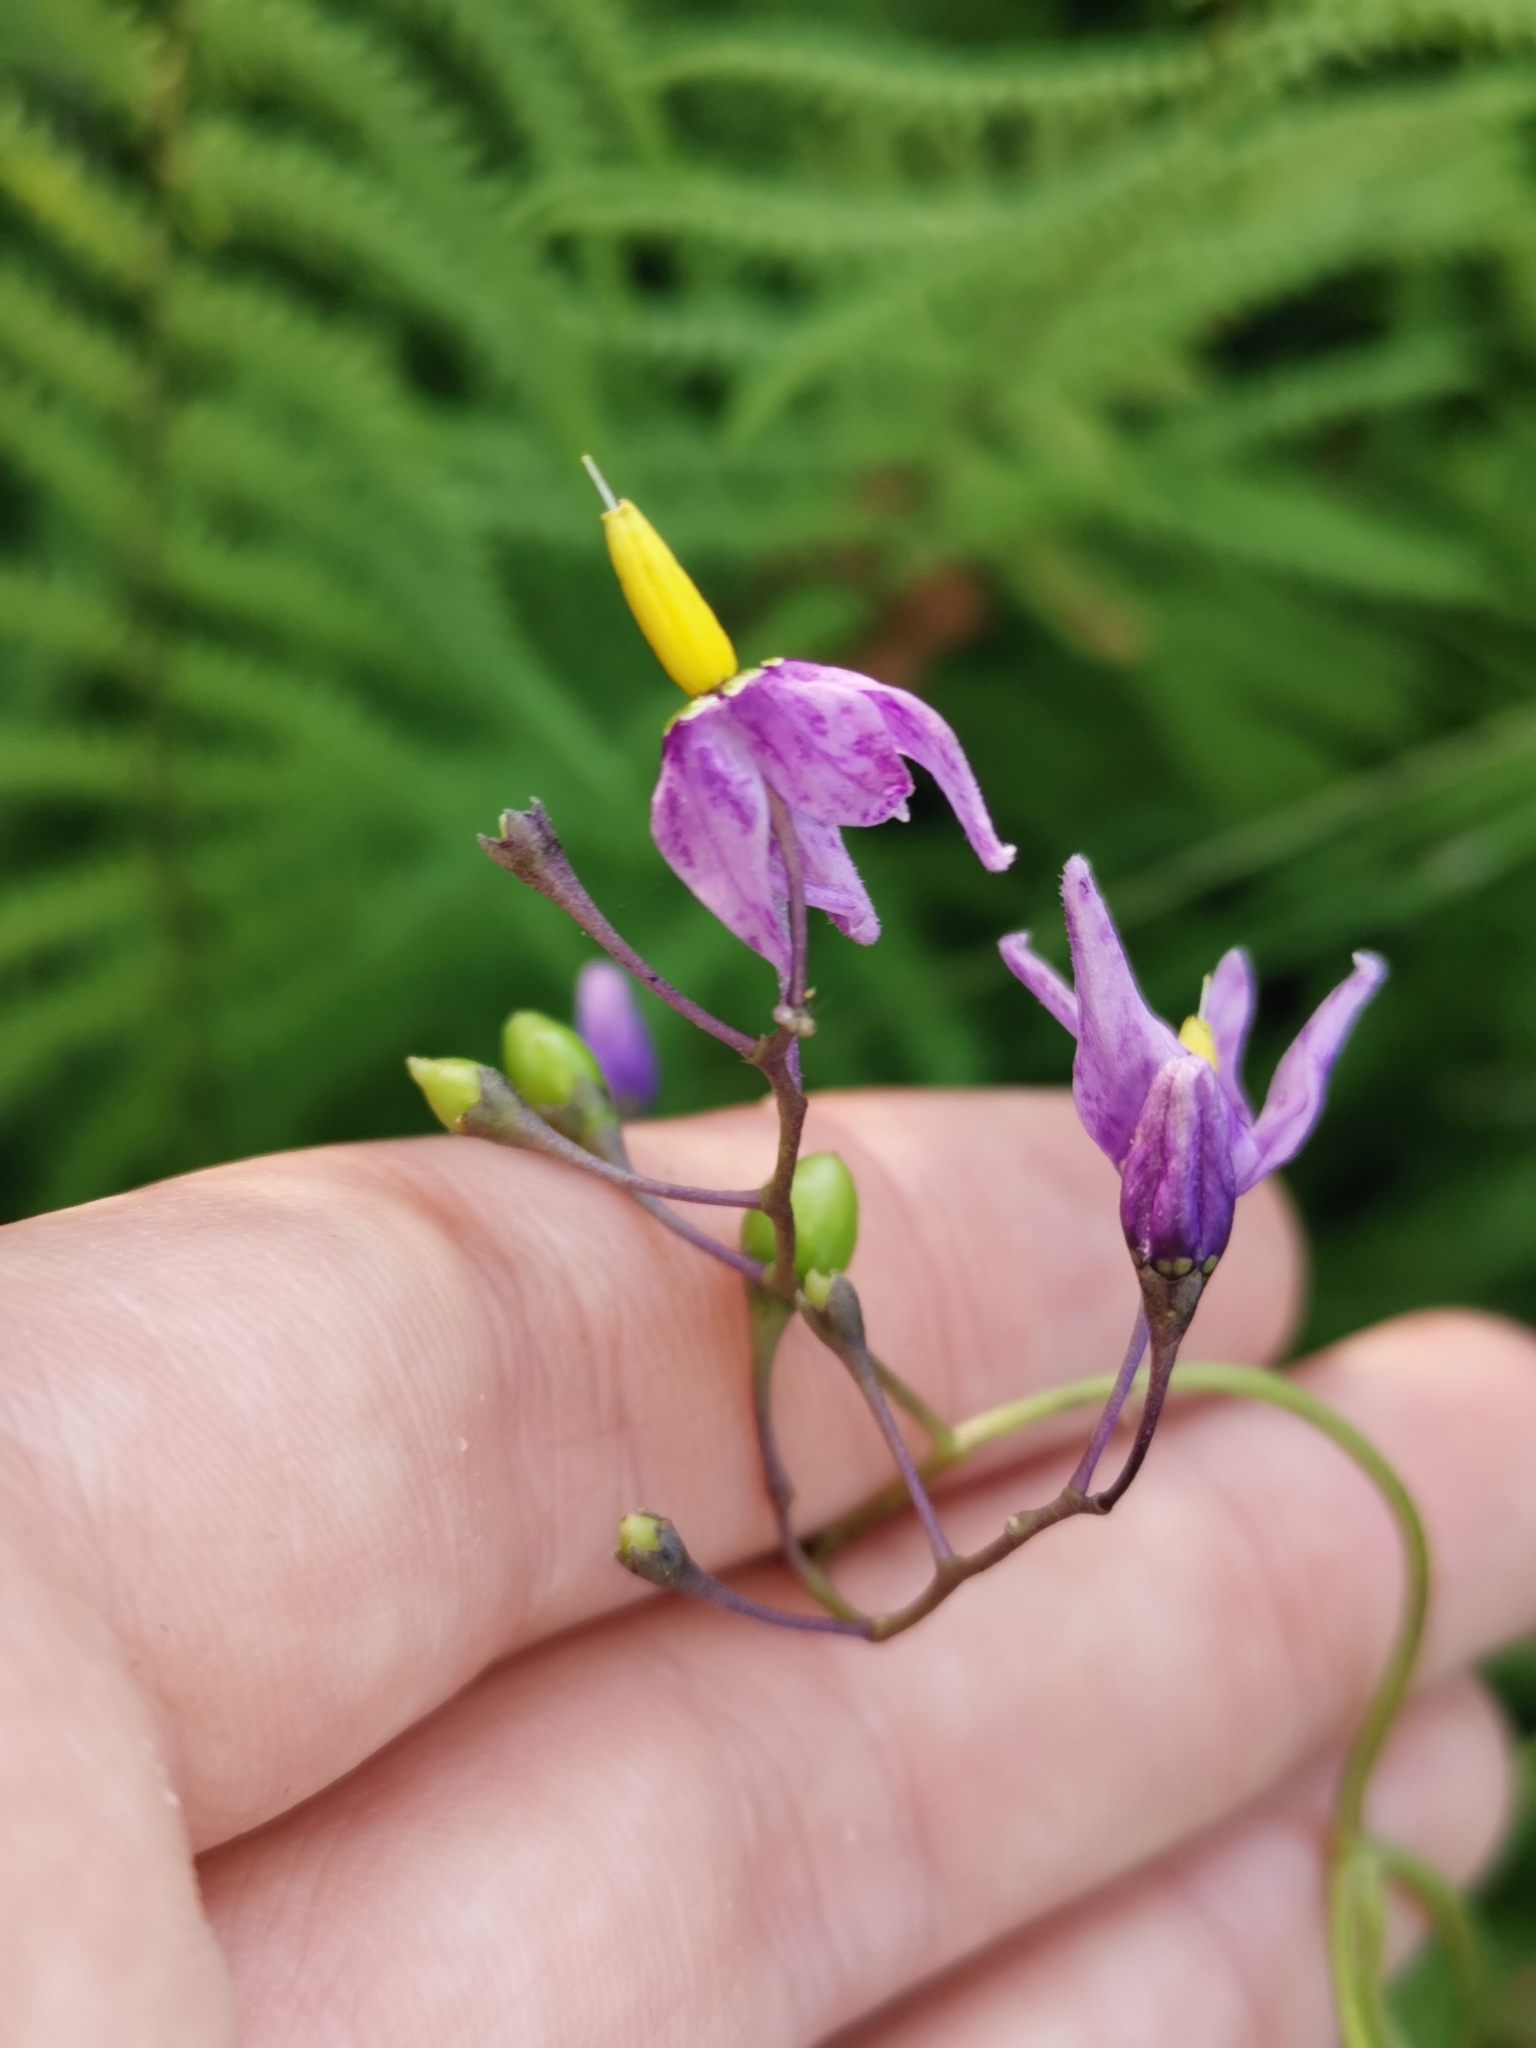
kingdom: Plantae
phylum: Tracheophyta
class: Magnoliopsida
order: Solanales
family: Solanaceae
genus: Solanum
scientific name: Solanum dulcamara
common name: Climbing nightshade
